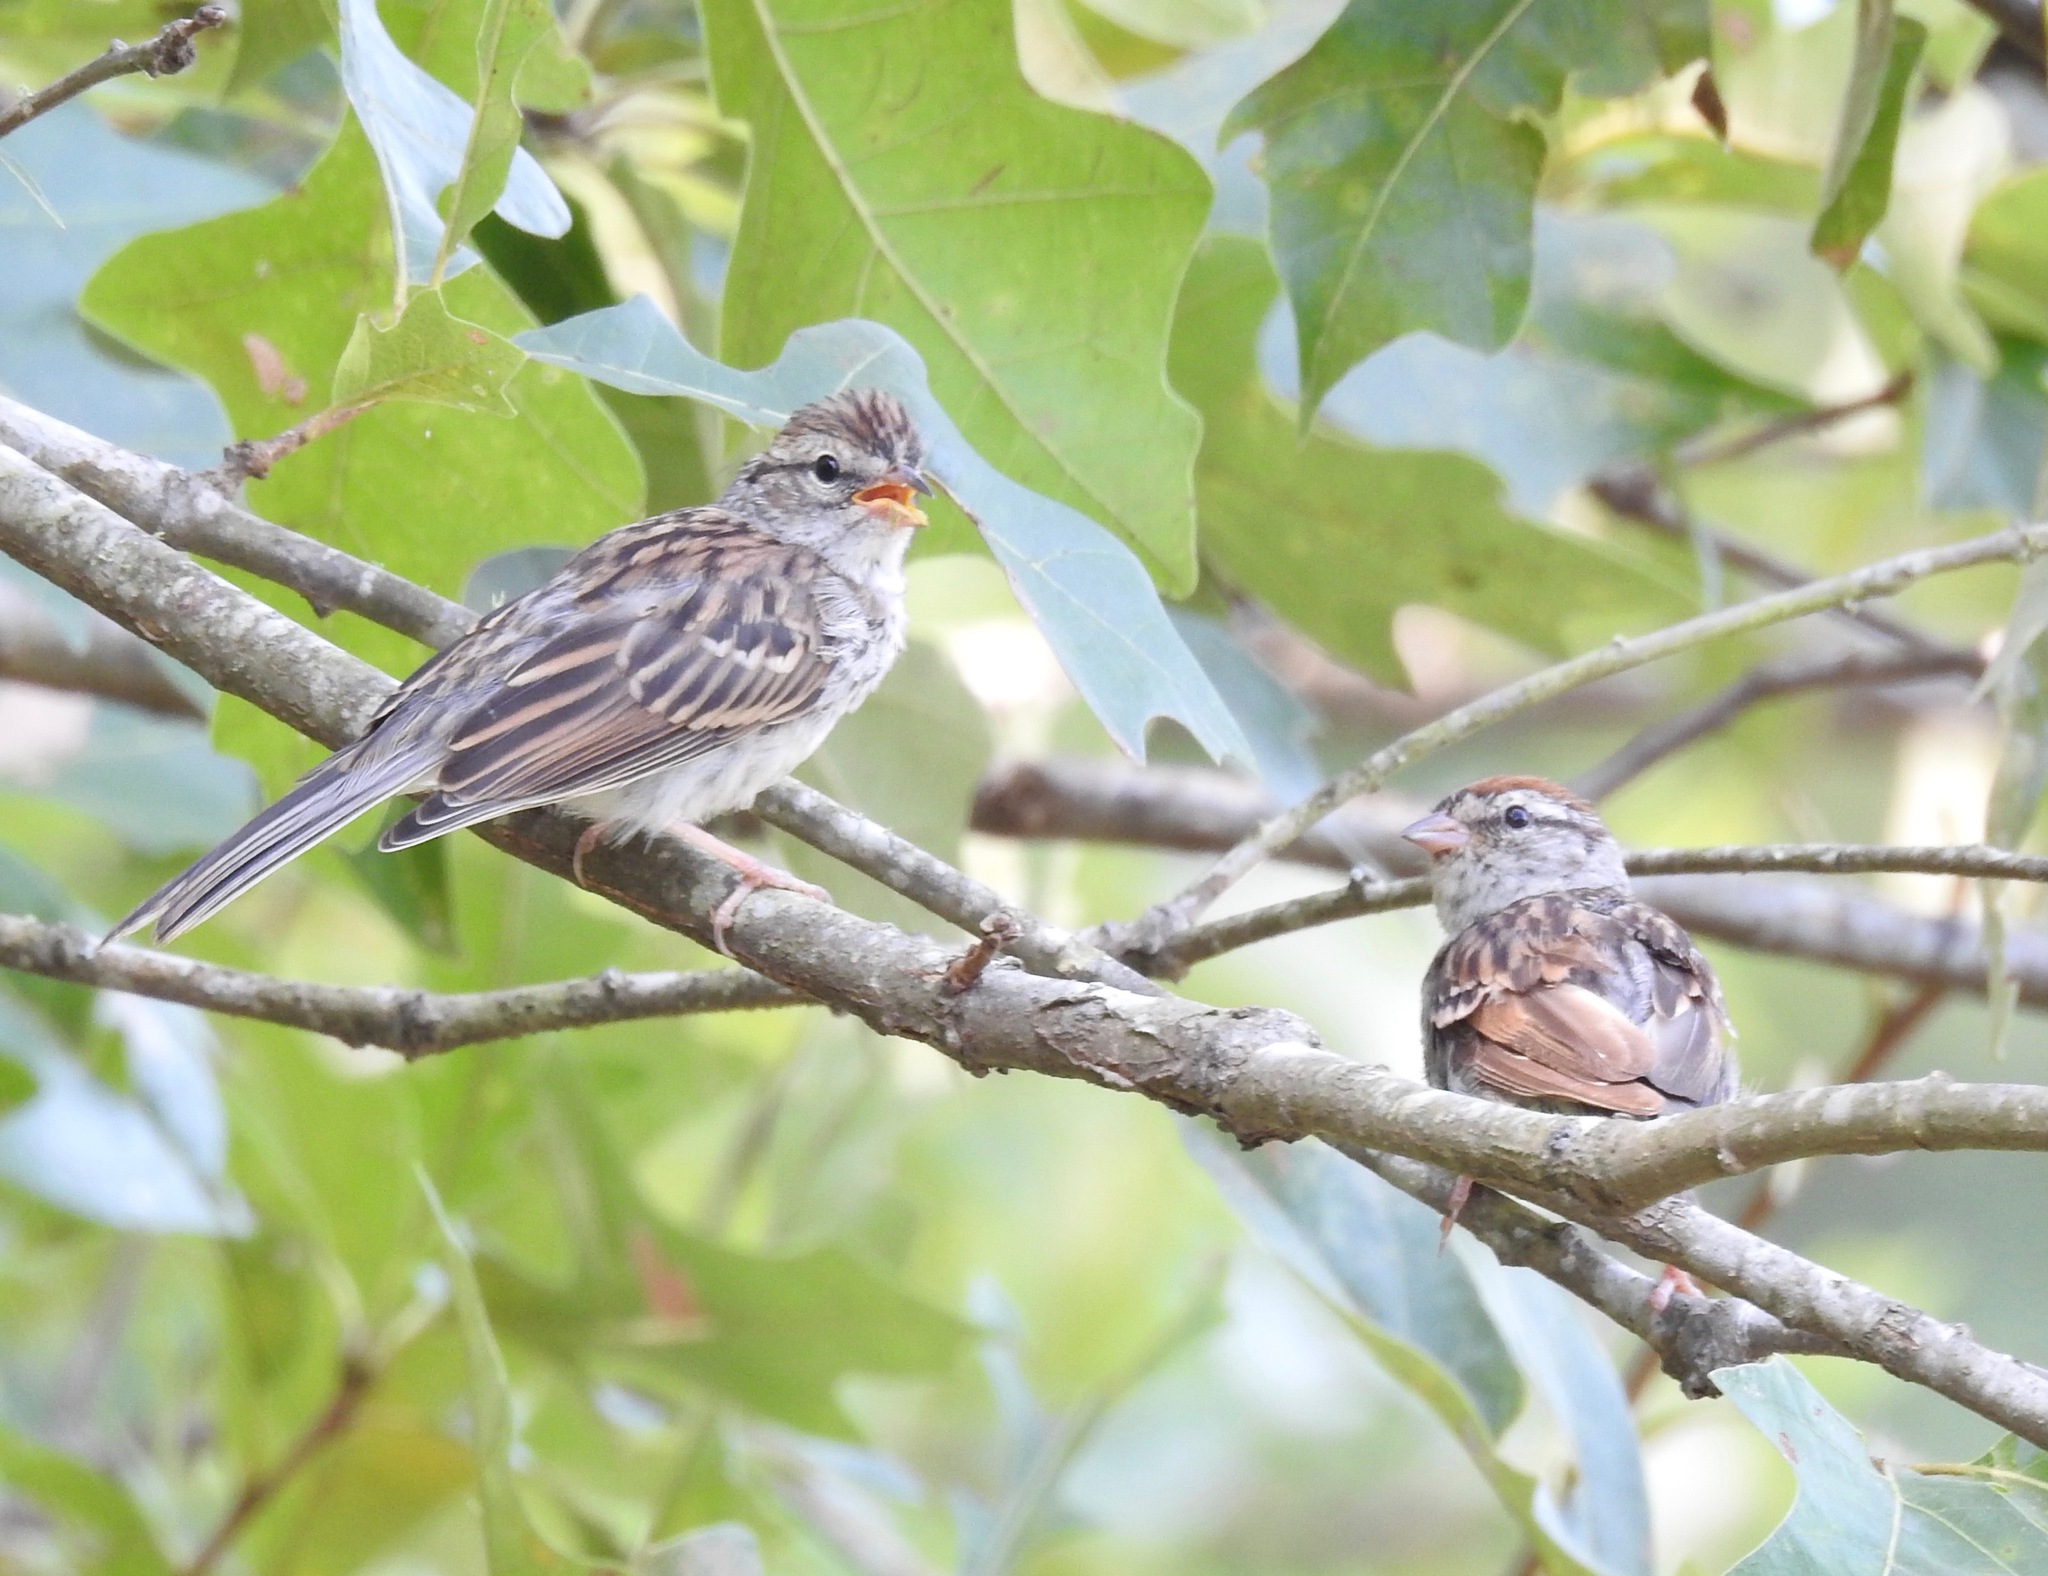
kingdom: Animalia
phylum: Chordata
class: Aves
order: Passeriformes
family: Passerellidae
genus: Spizella
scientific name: Spizella passerina
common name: Chipping sparrow
